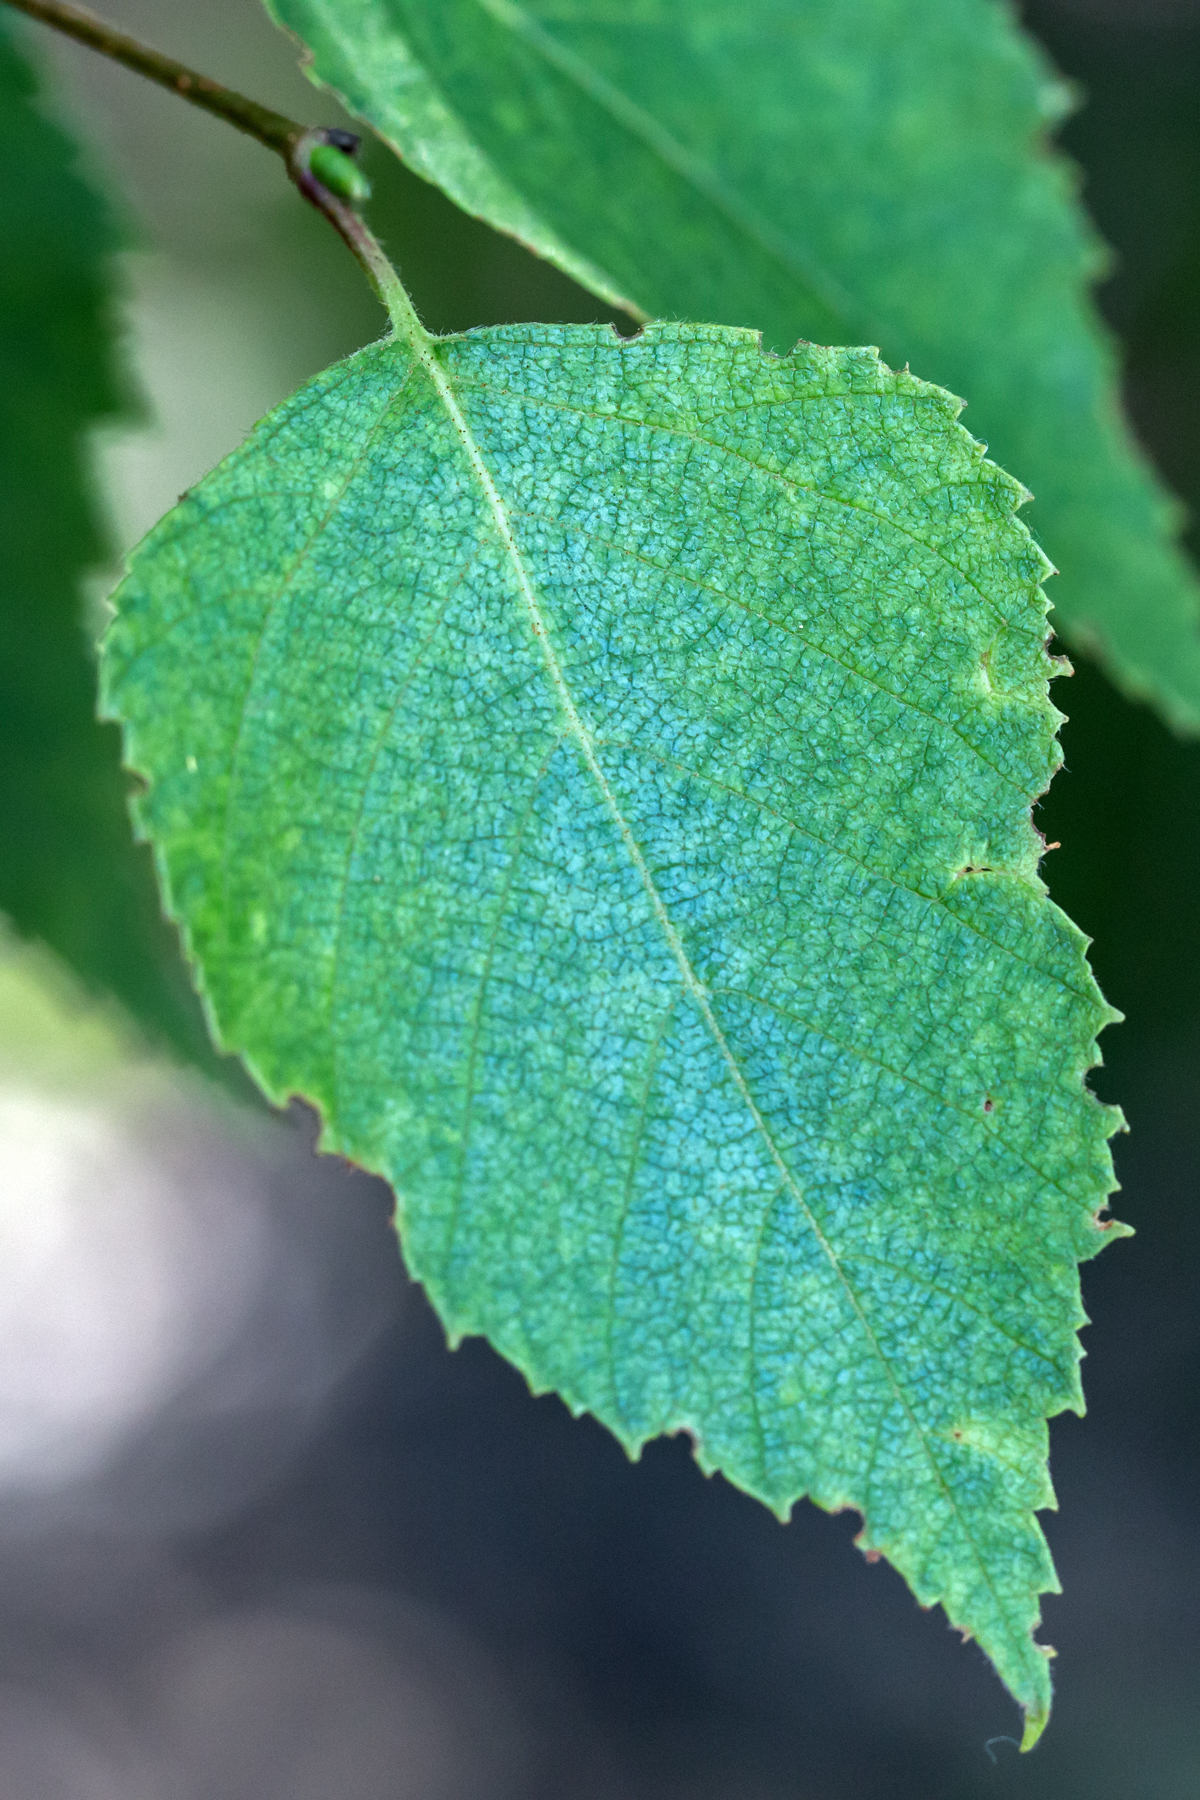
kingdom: Plantae
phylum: Tracheophyta
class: Magnoliopsida
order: Fagales
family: Betulaceae
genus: Betula
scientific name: Betula papyrifera
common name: Paper birch
